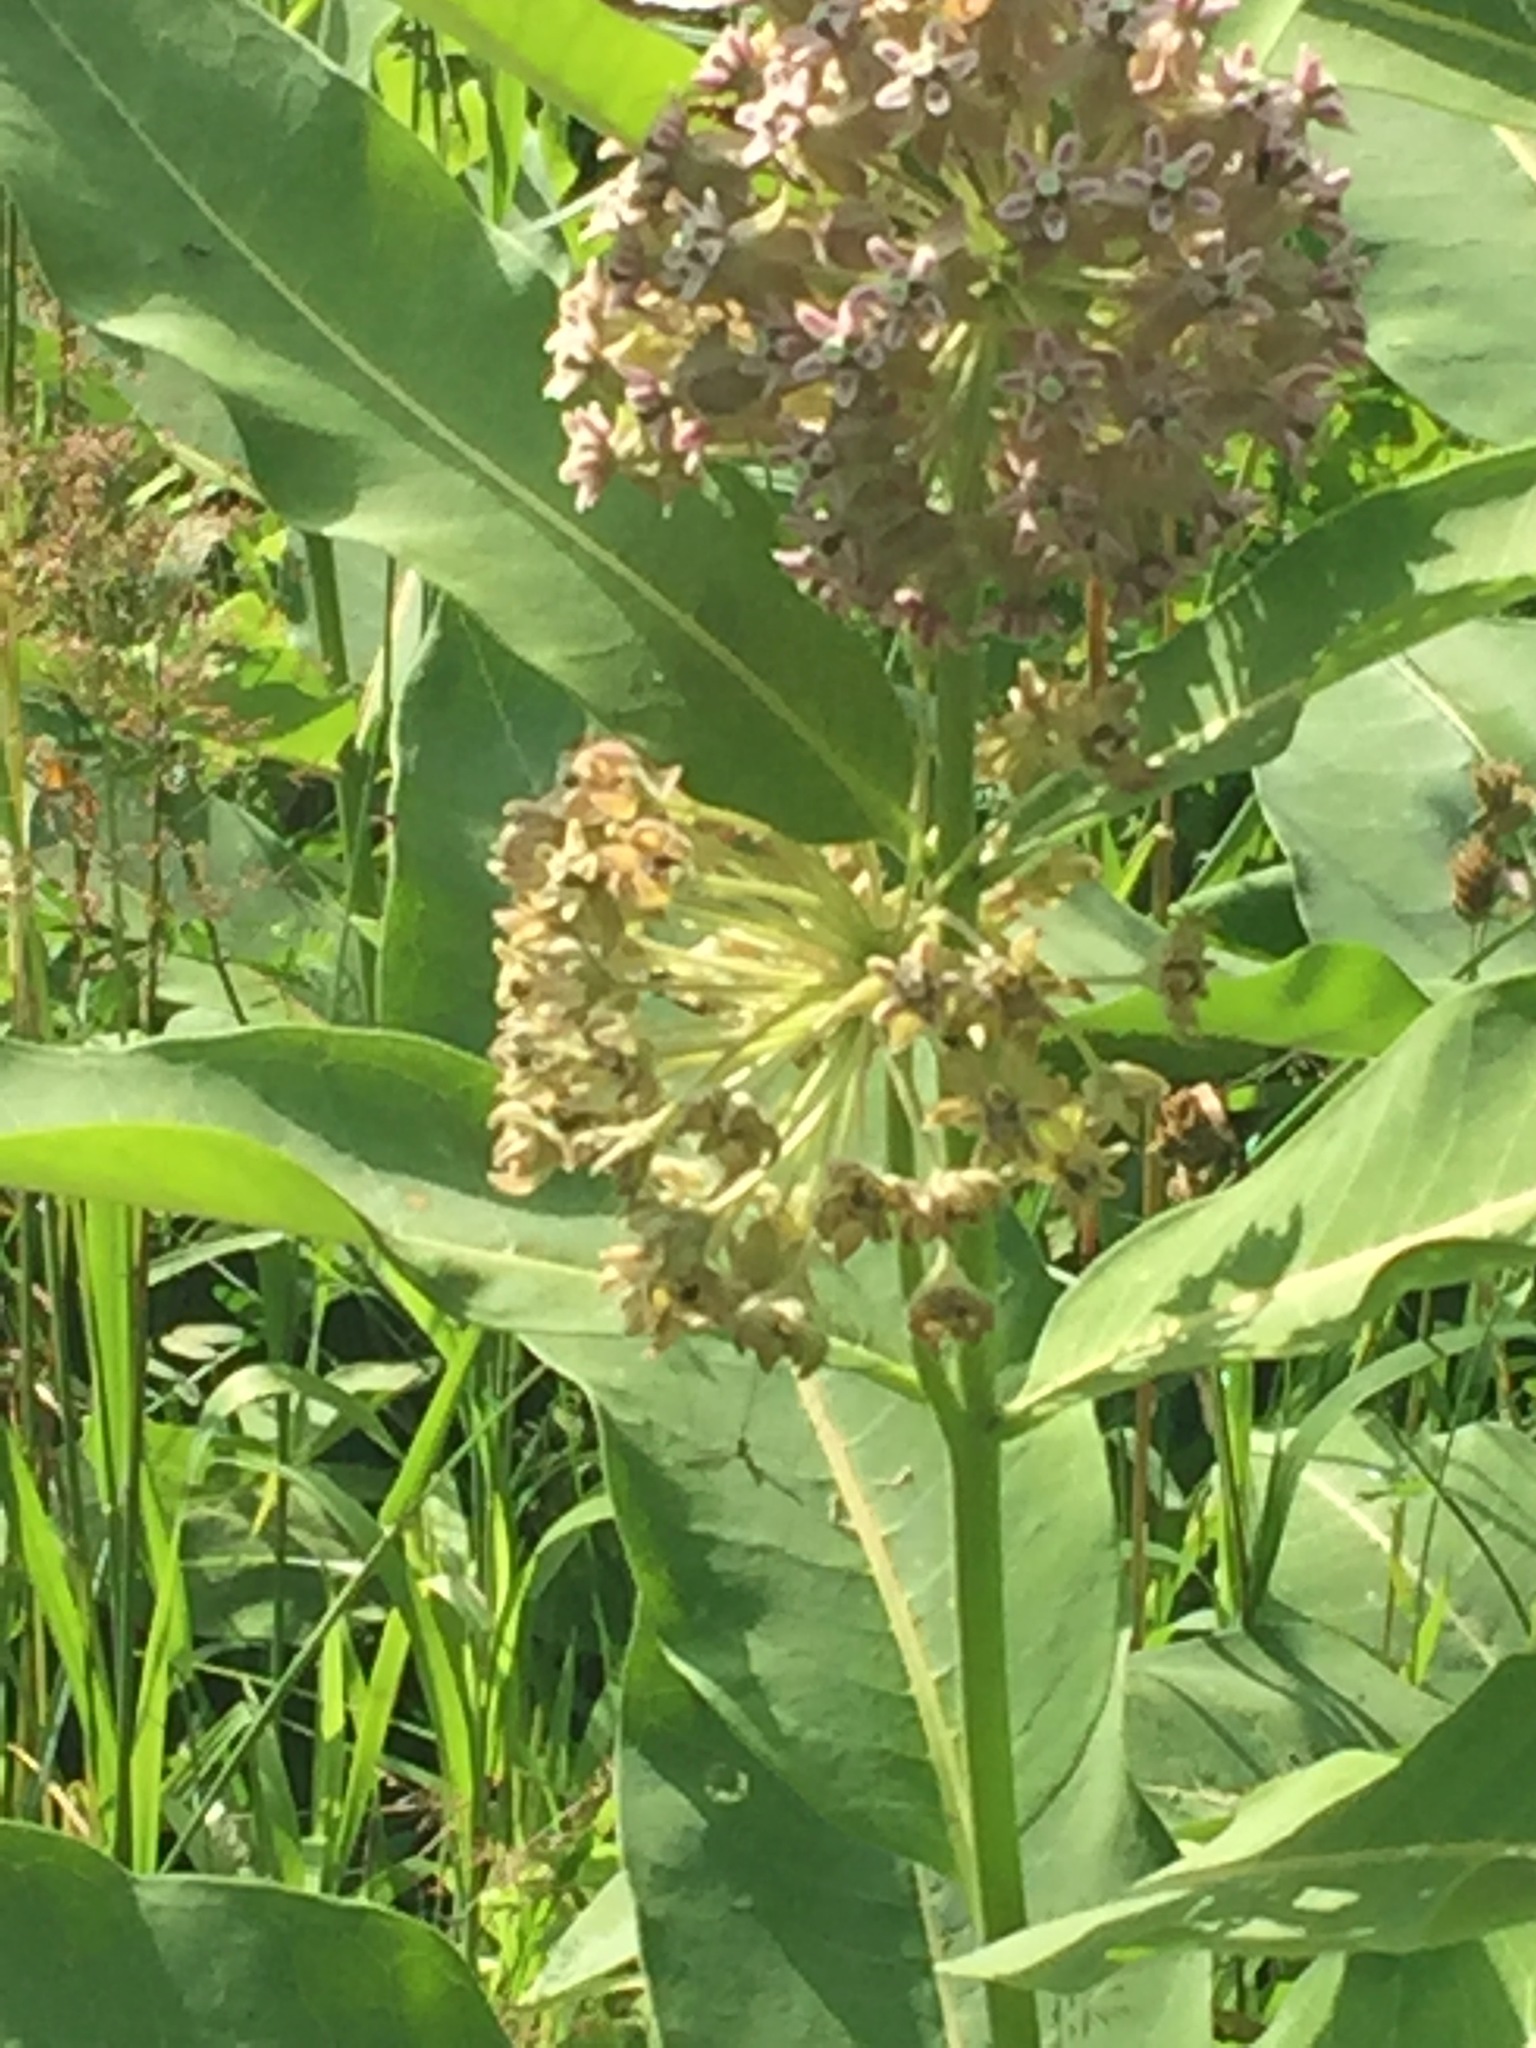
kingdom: Plantae
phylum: Tracheophyta
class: Magnoliopsida
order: Gentianales
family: Apocynaceae
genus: Asclepias
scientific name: Asclepias syriaca
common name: Common milkweed
